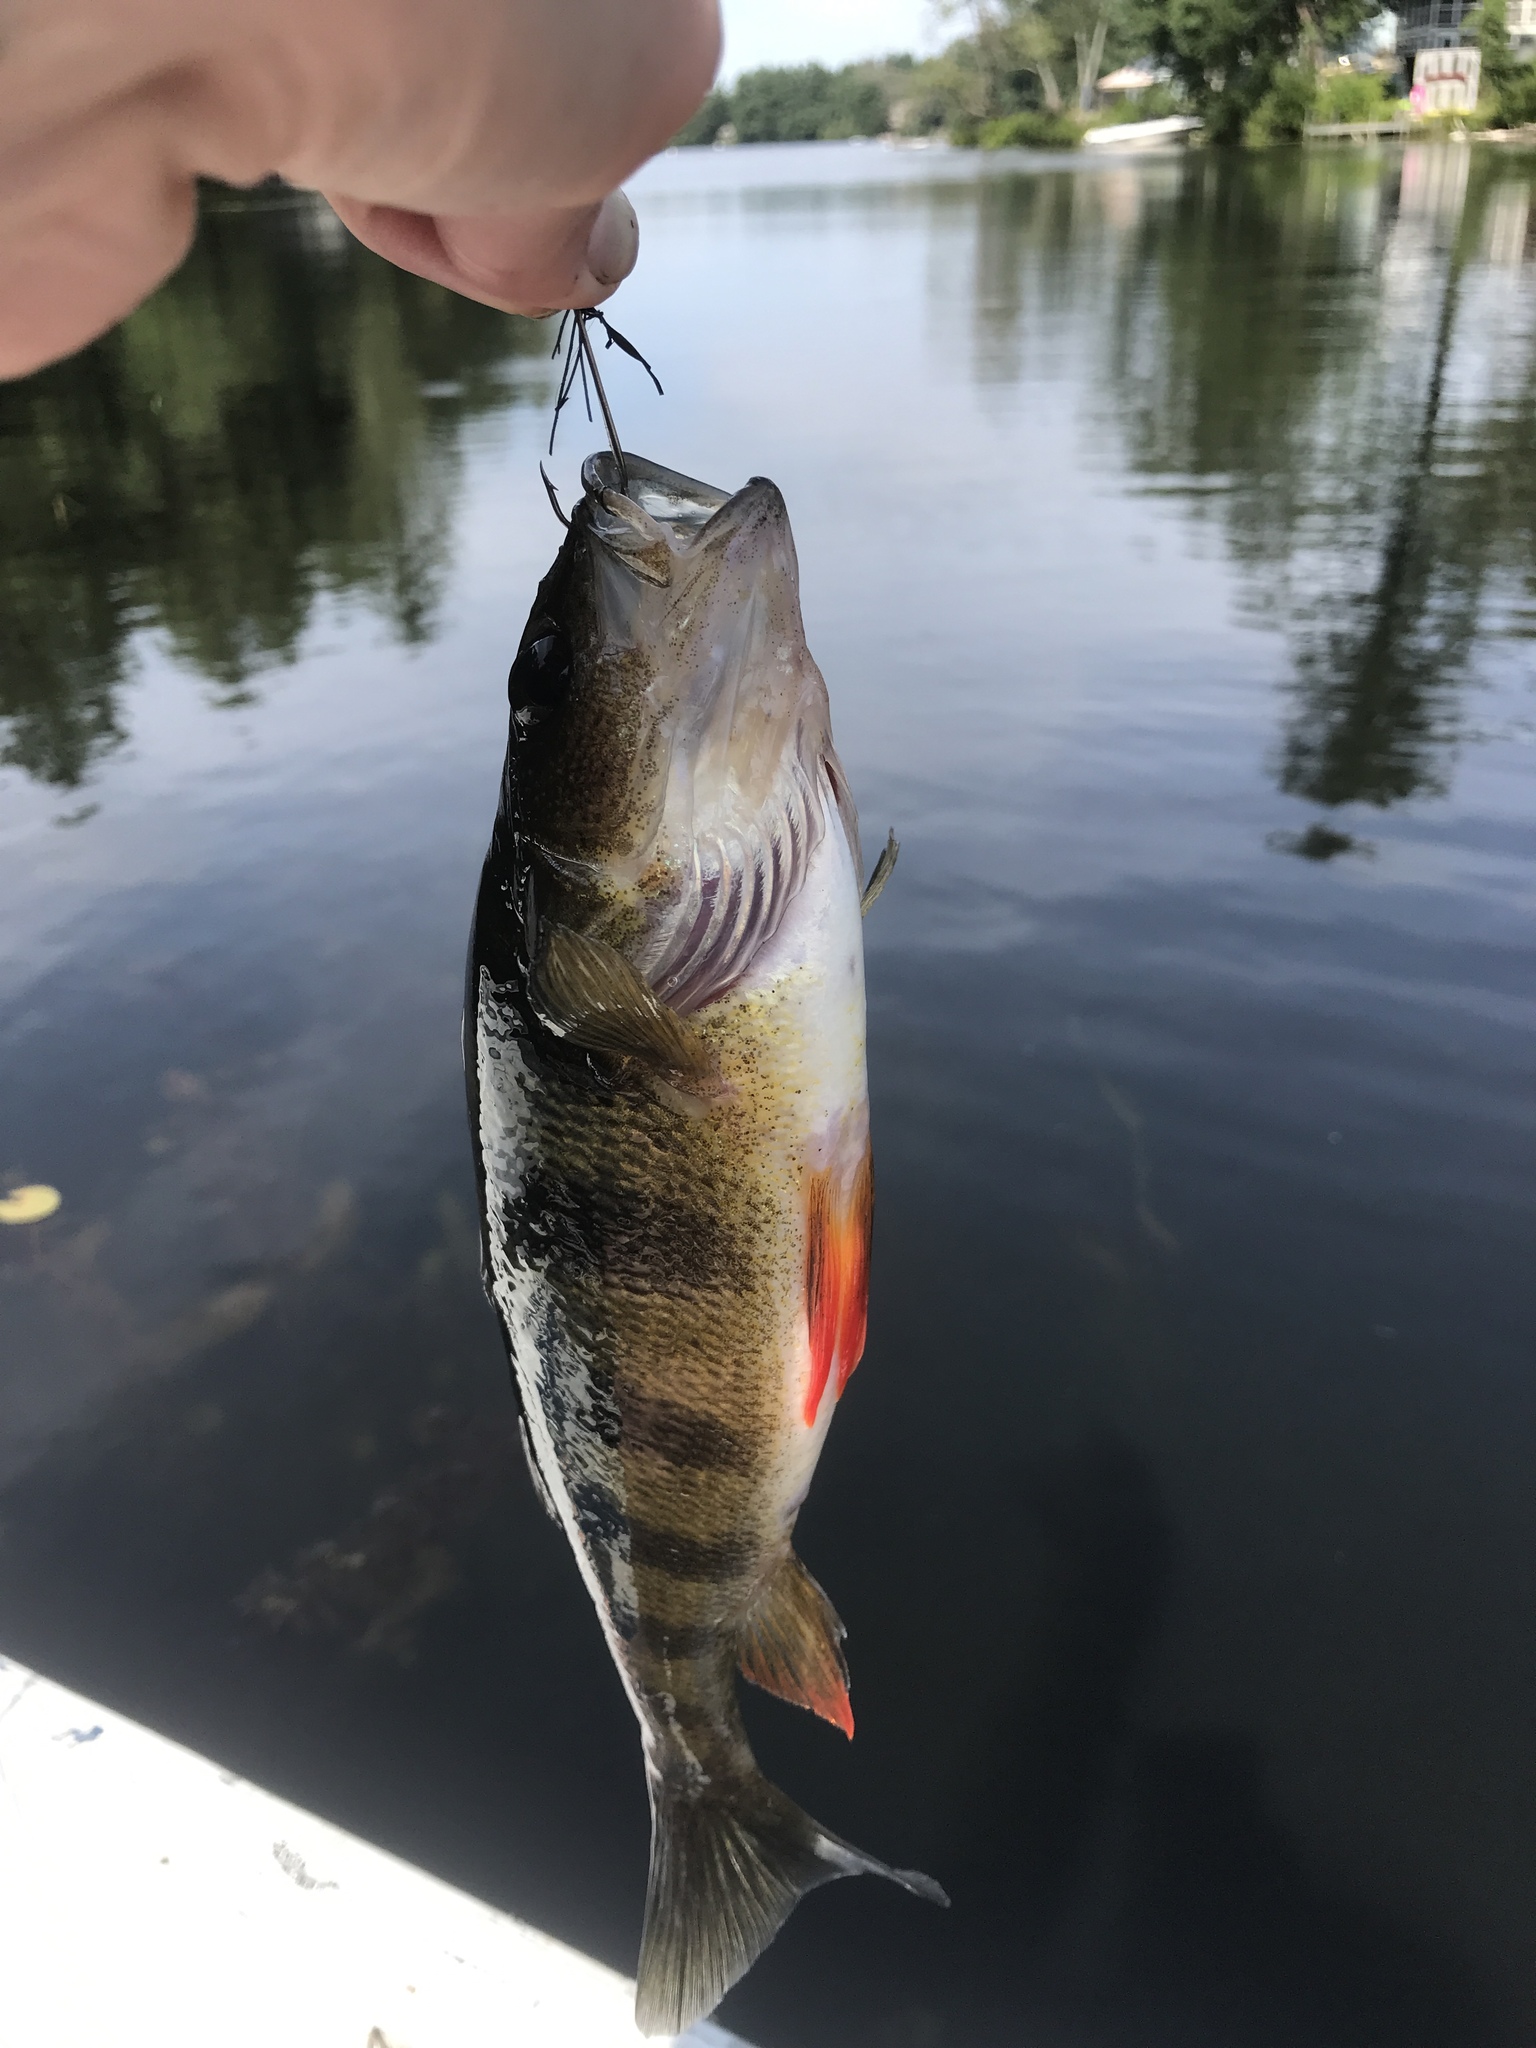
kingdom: Animalia
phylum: Chordata
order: Perciformes
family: Percidae
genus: Perca
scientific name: Perca flavescens
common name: Yellow perch
